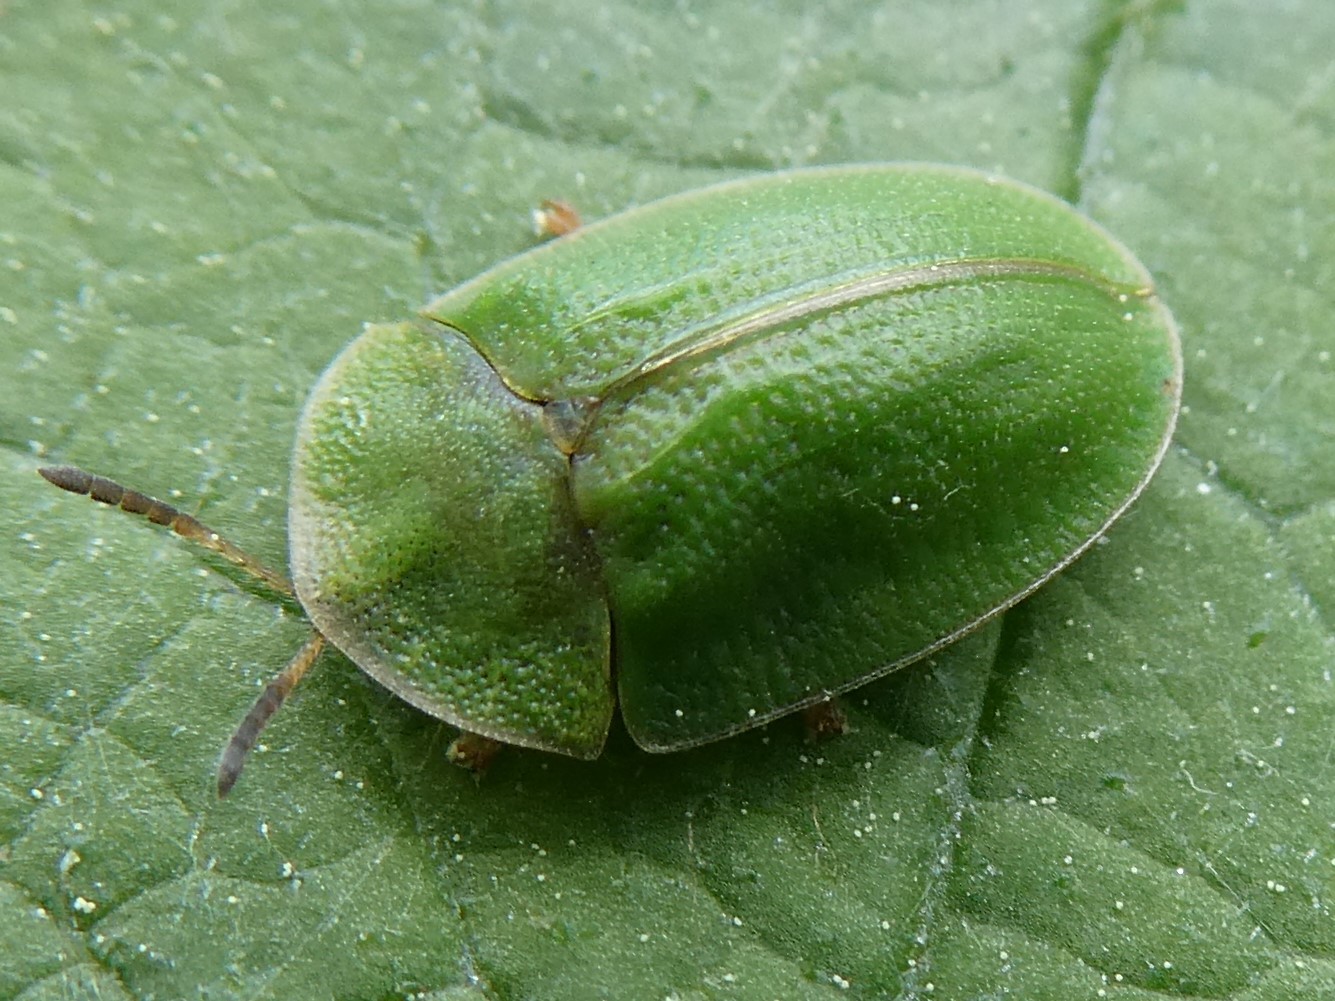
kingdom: Animalia
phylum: Arthropoda
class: Insecta
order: Coleoptera
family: Chrysomelidae
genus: Cassida
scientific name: Cassida rubiginosa
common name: Thistle tortoise beetle
